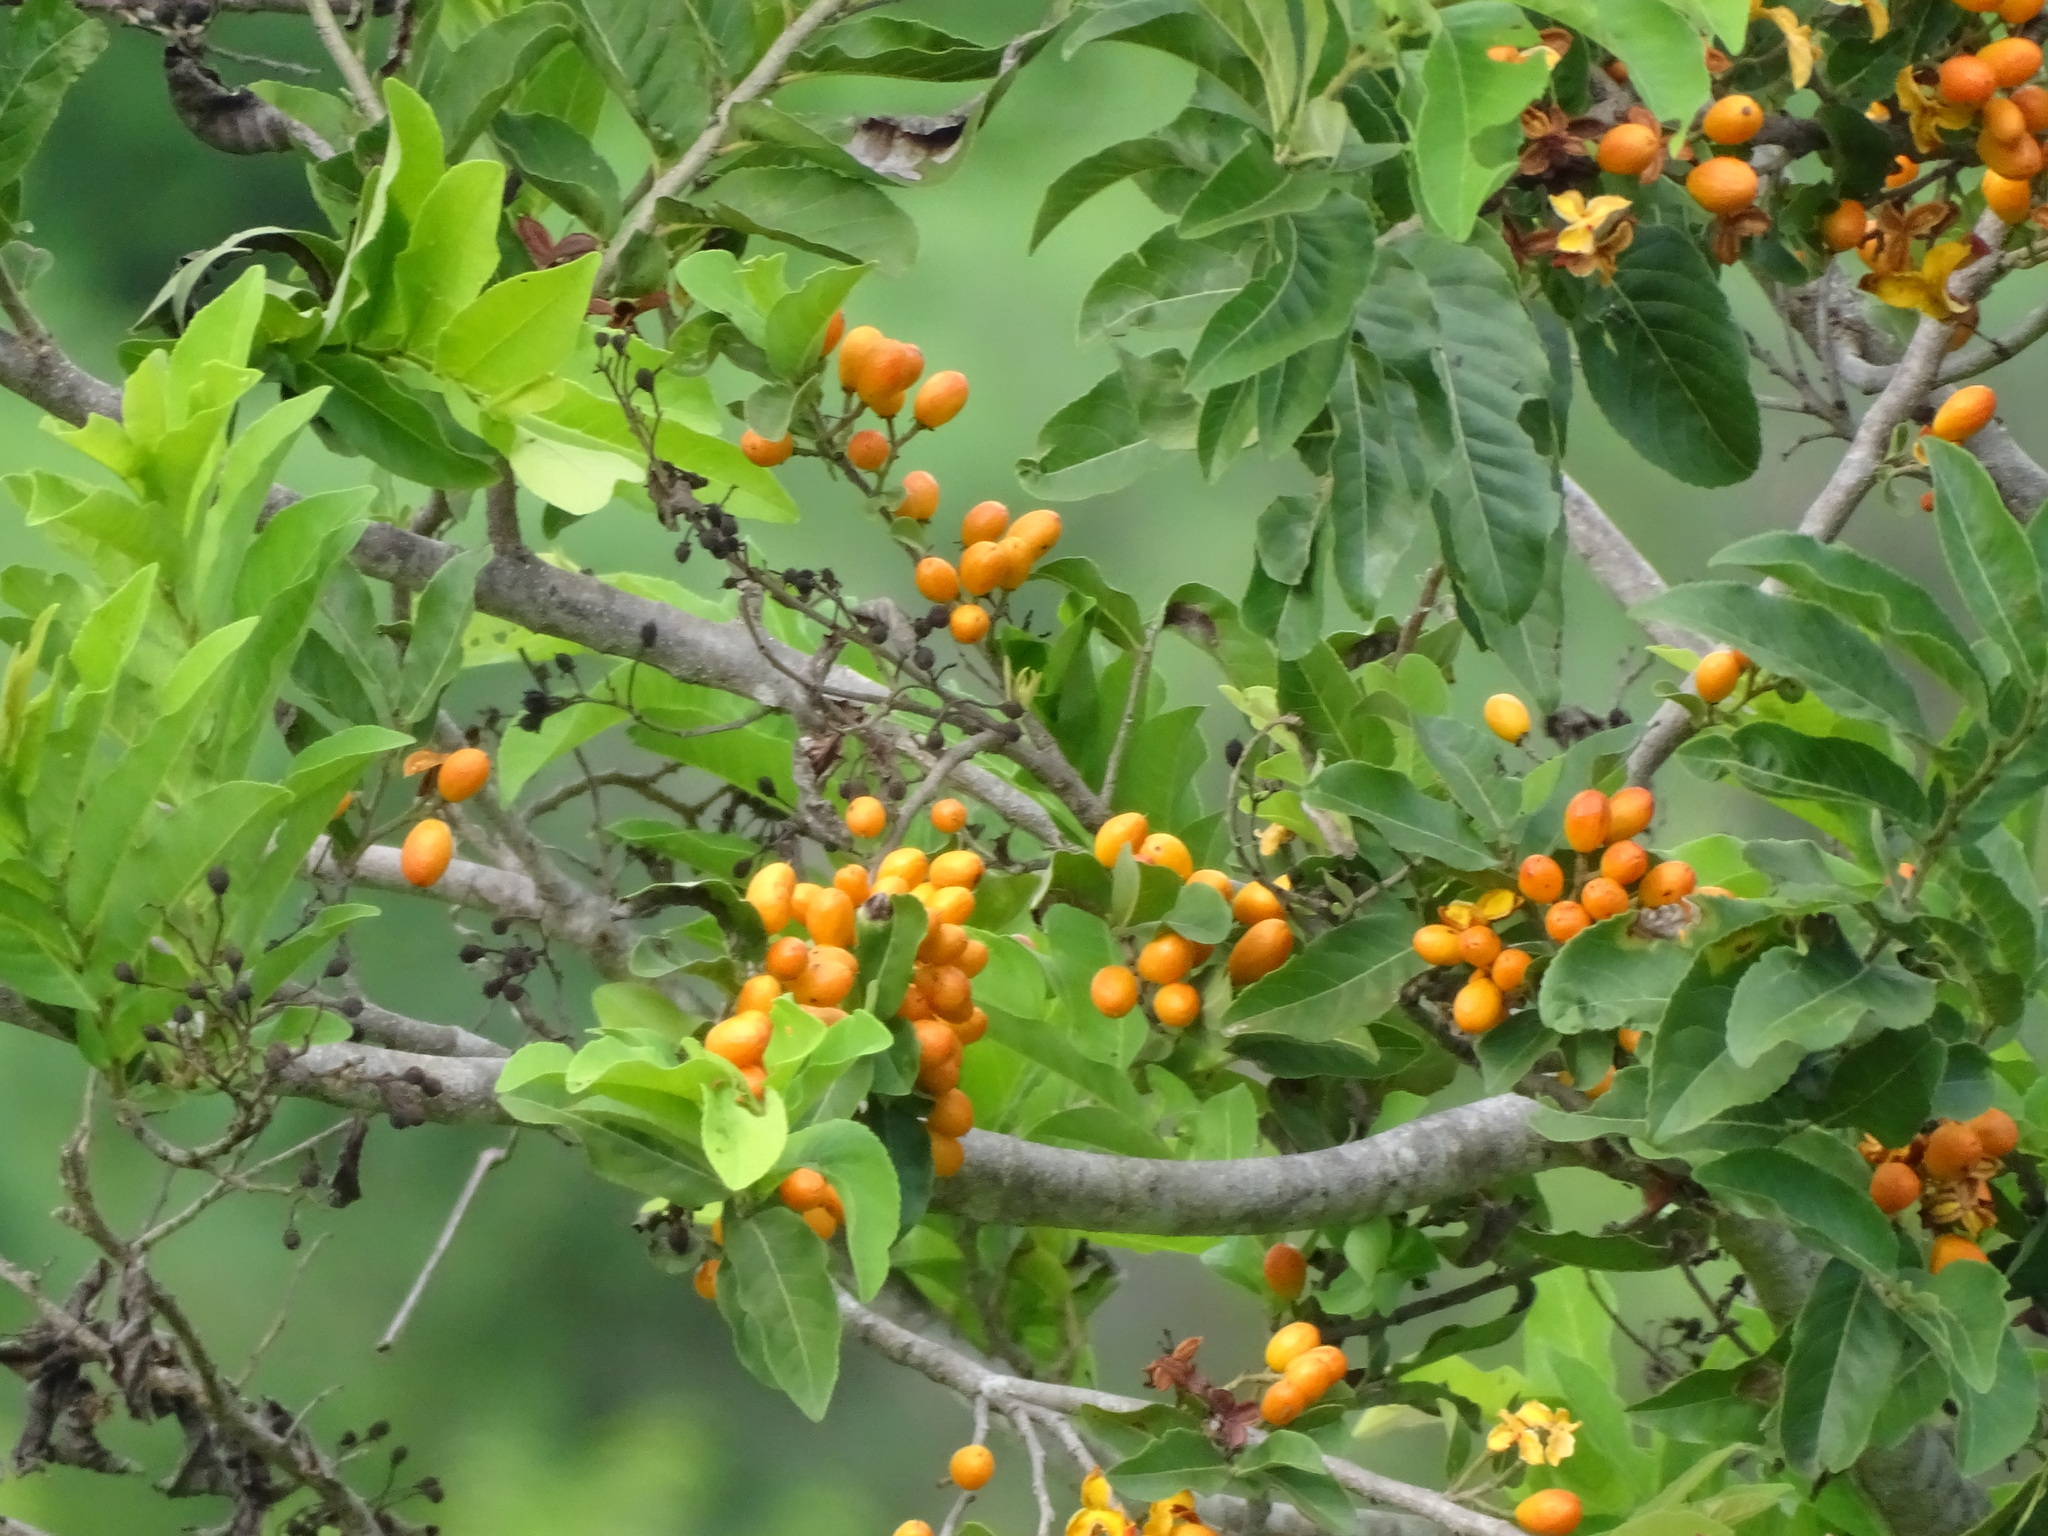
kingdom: Plantae
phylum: Tracheophyta
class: Magnoliopsida
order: Malpighiales
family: Salicaceae
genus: Casearia
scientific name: Casearia corymbosa
